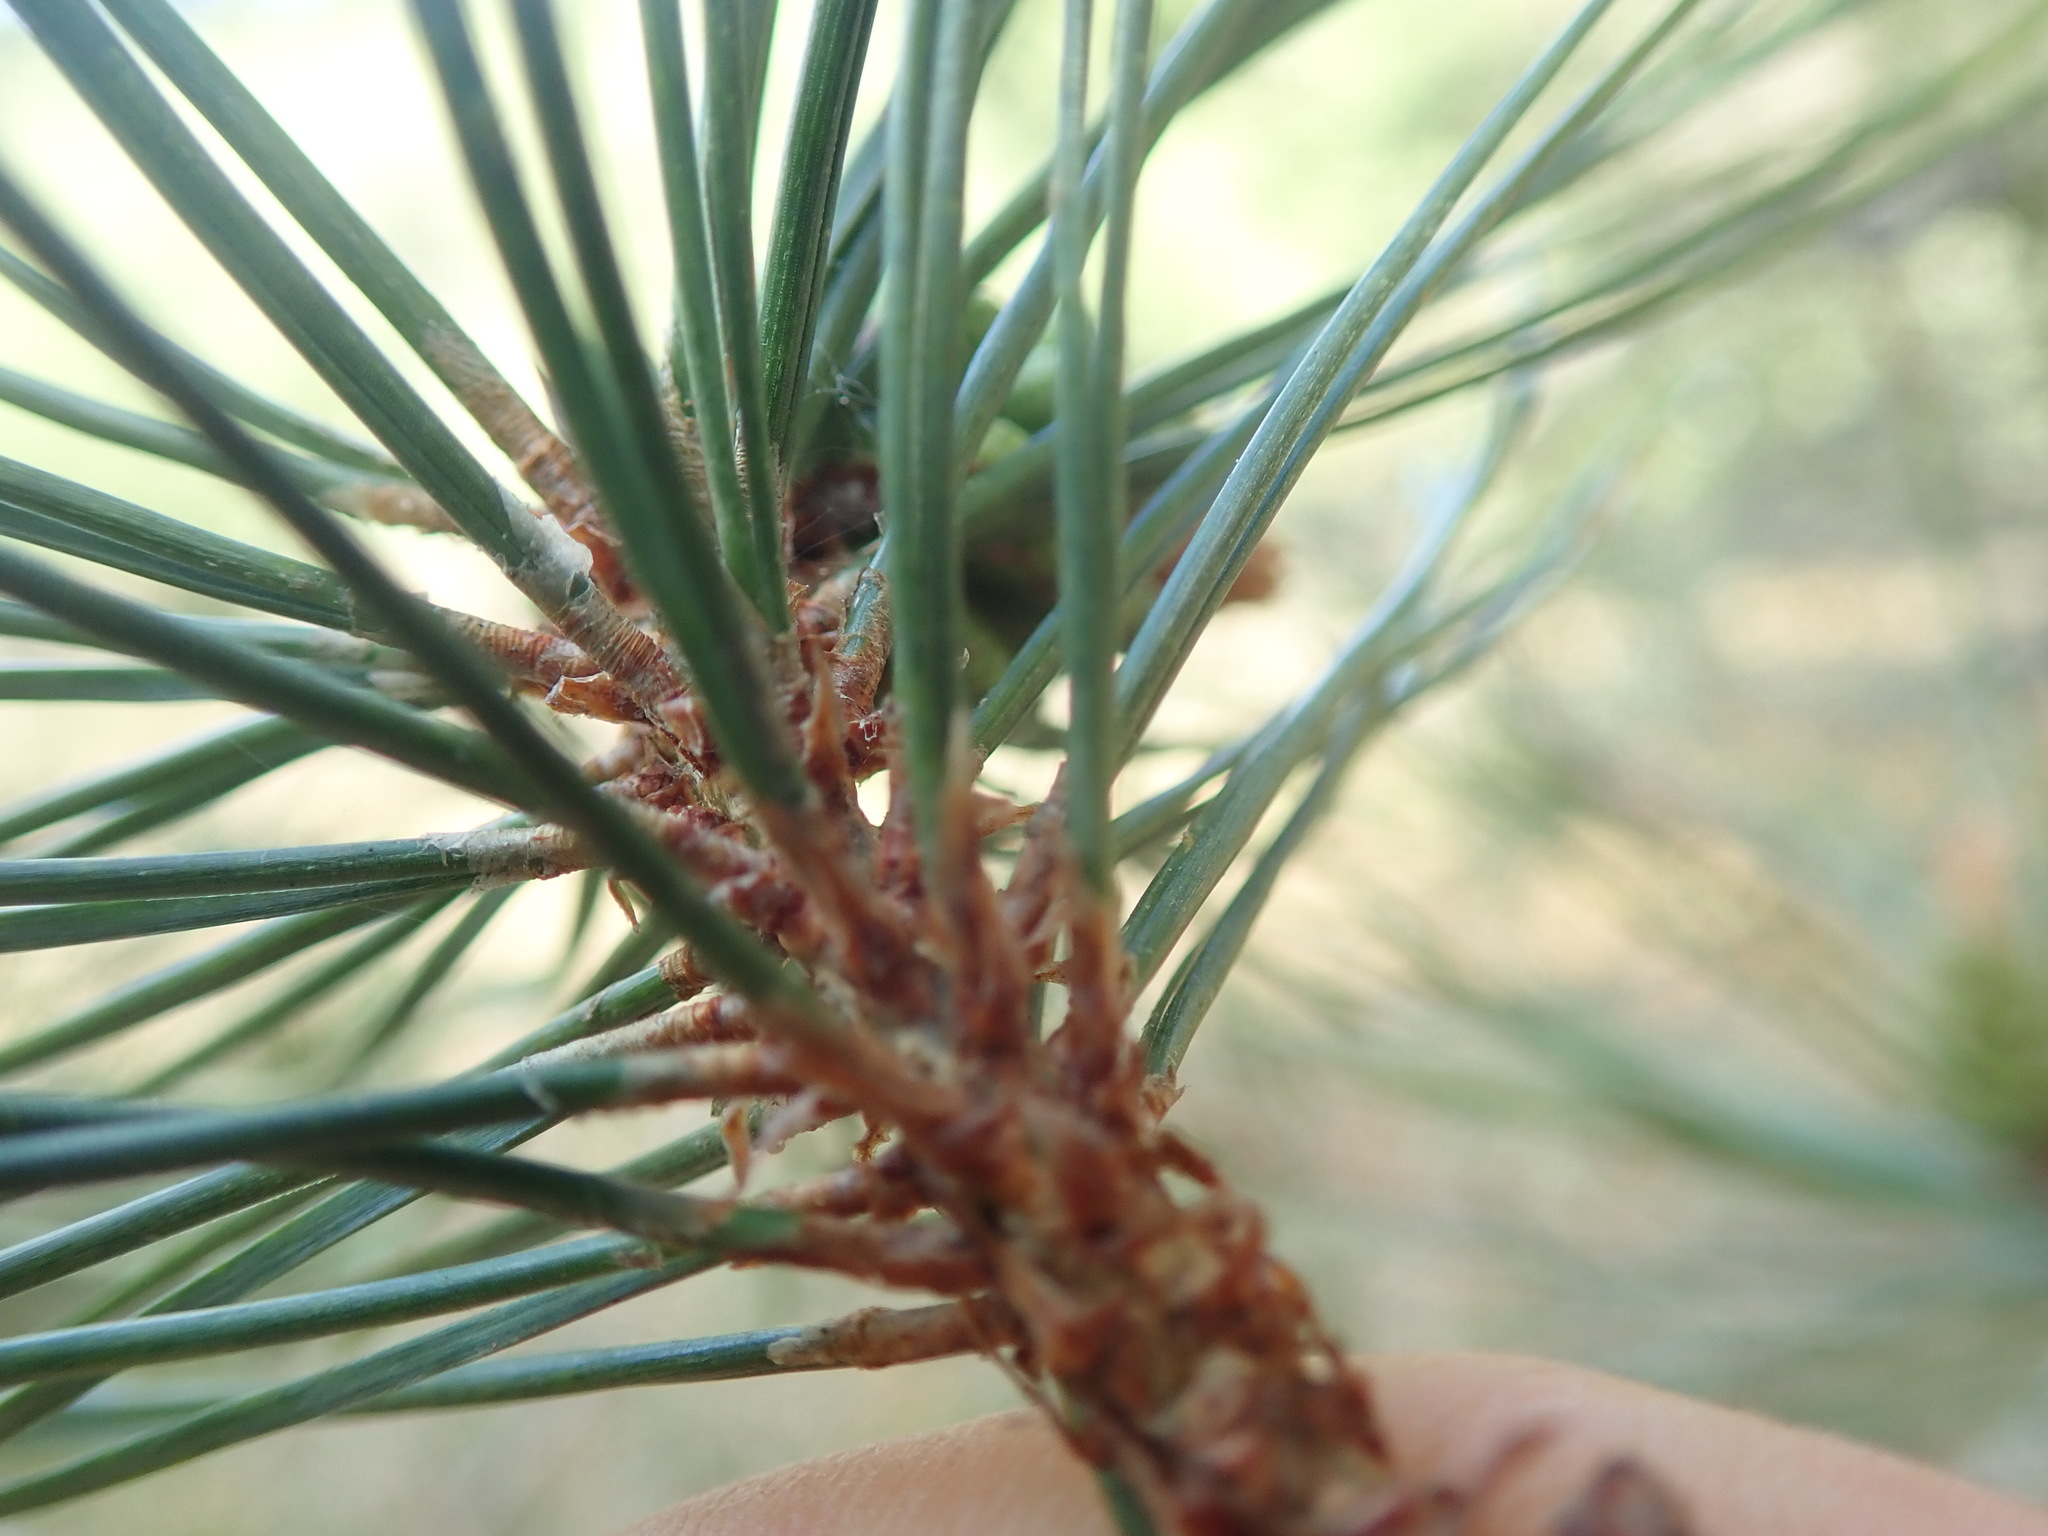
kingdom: Plantae
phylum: Tracheophyta
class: Pinopsida
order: Pinales
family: Pinaceae
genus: Pinus
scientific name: Pinus contorta
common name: Lodgepole pine
